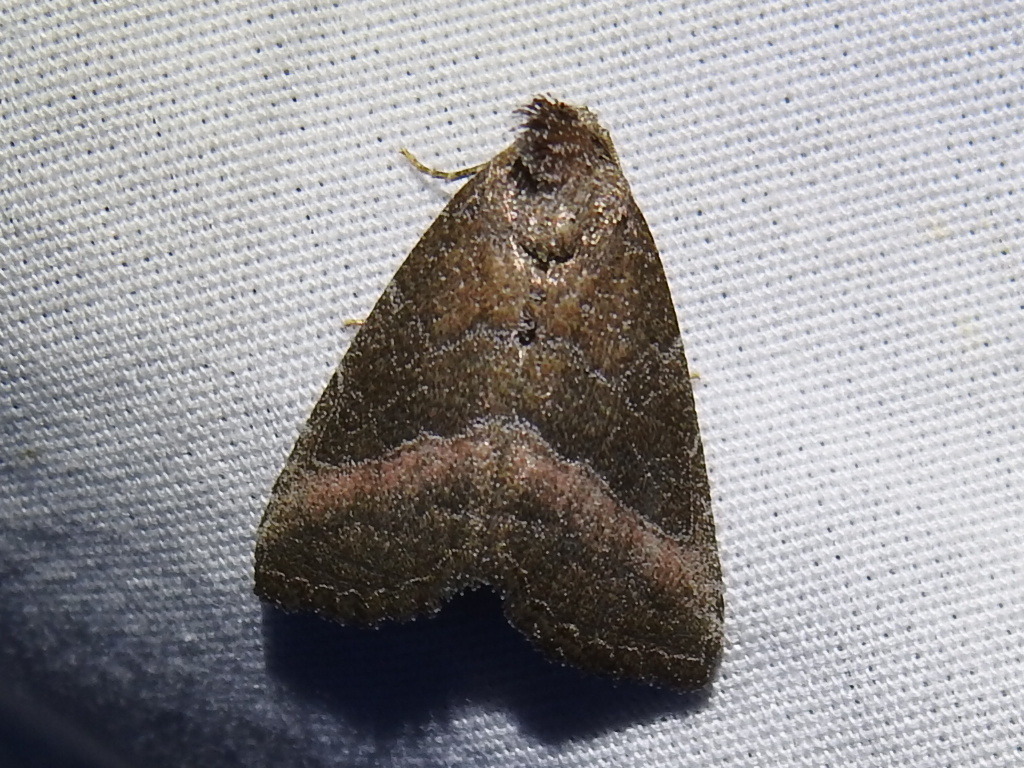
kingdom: Animalia
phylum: Arthropoda
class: Insecta
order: Lepidoptera
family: Noctuidae
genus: Ogdoconta
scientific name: Ogdoconta cinereola
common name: Common pinkband
